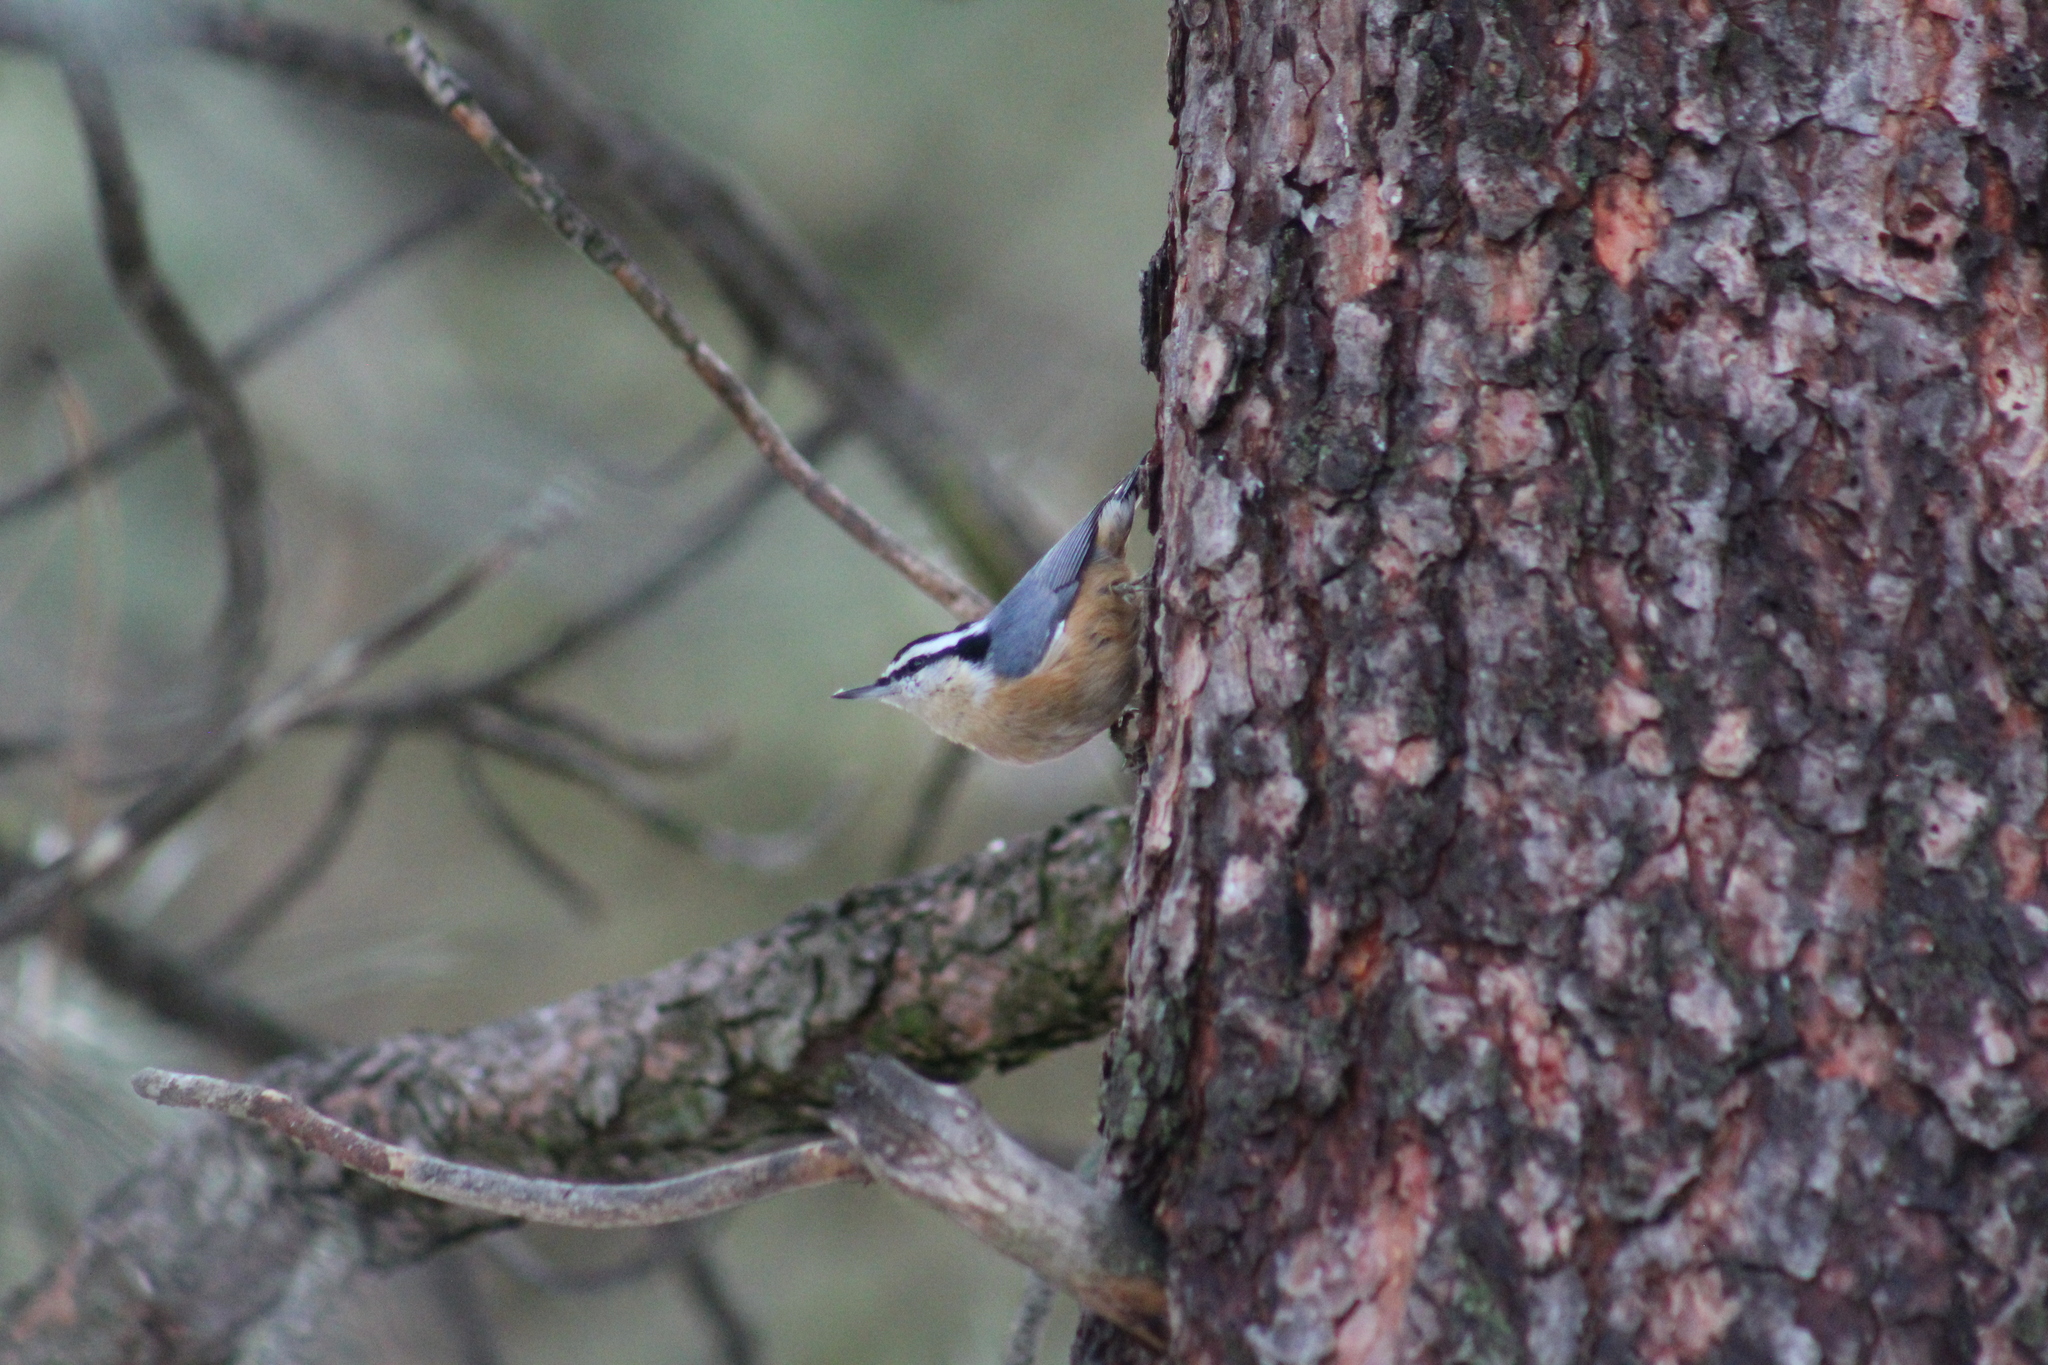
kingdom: Animalia
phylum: Chordata
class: Aves
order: Passeriformes
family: Sittidae
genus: Sitta
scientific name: Sitta canadensis
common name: Red-breasted nuthatch
